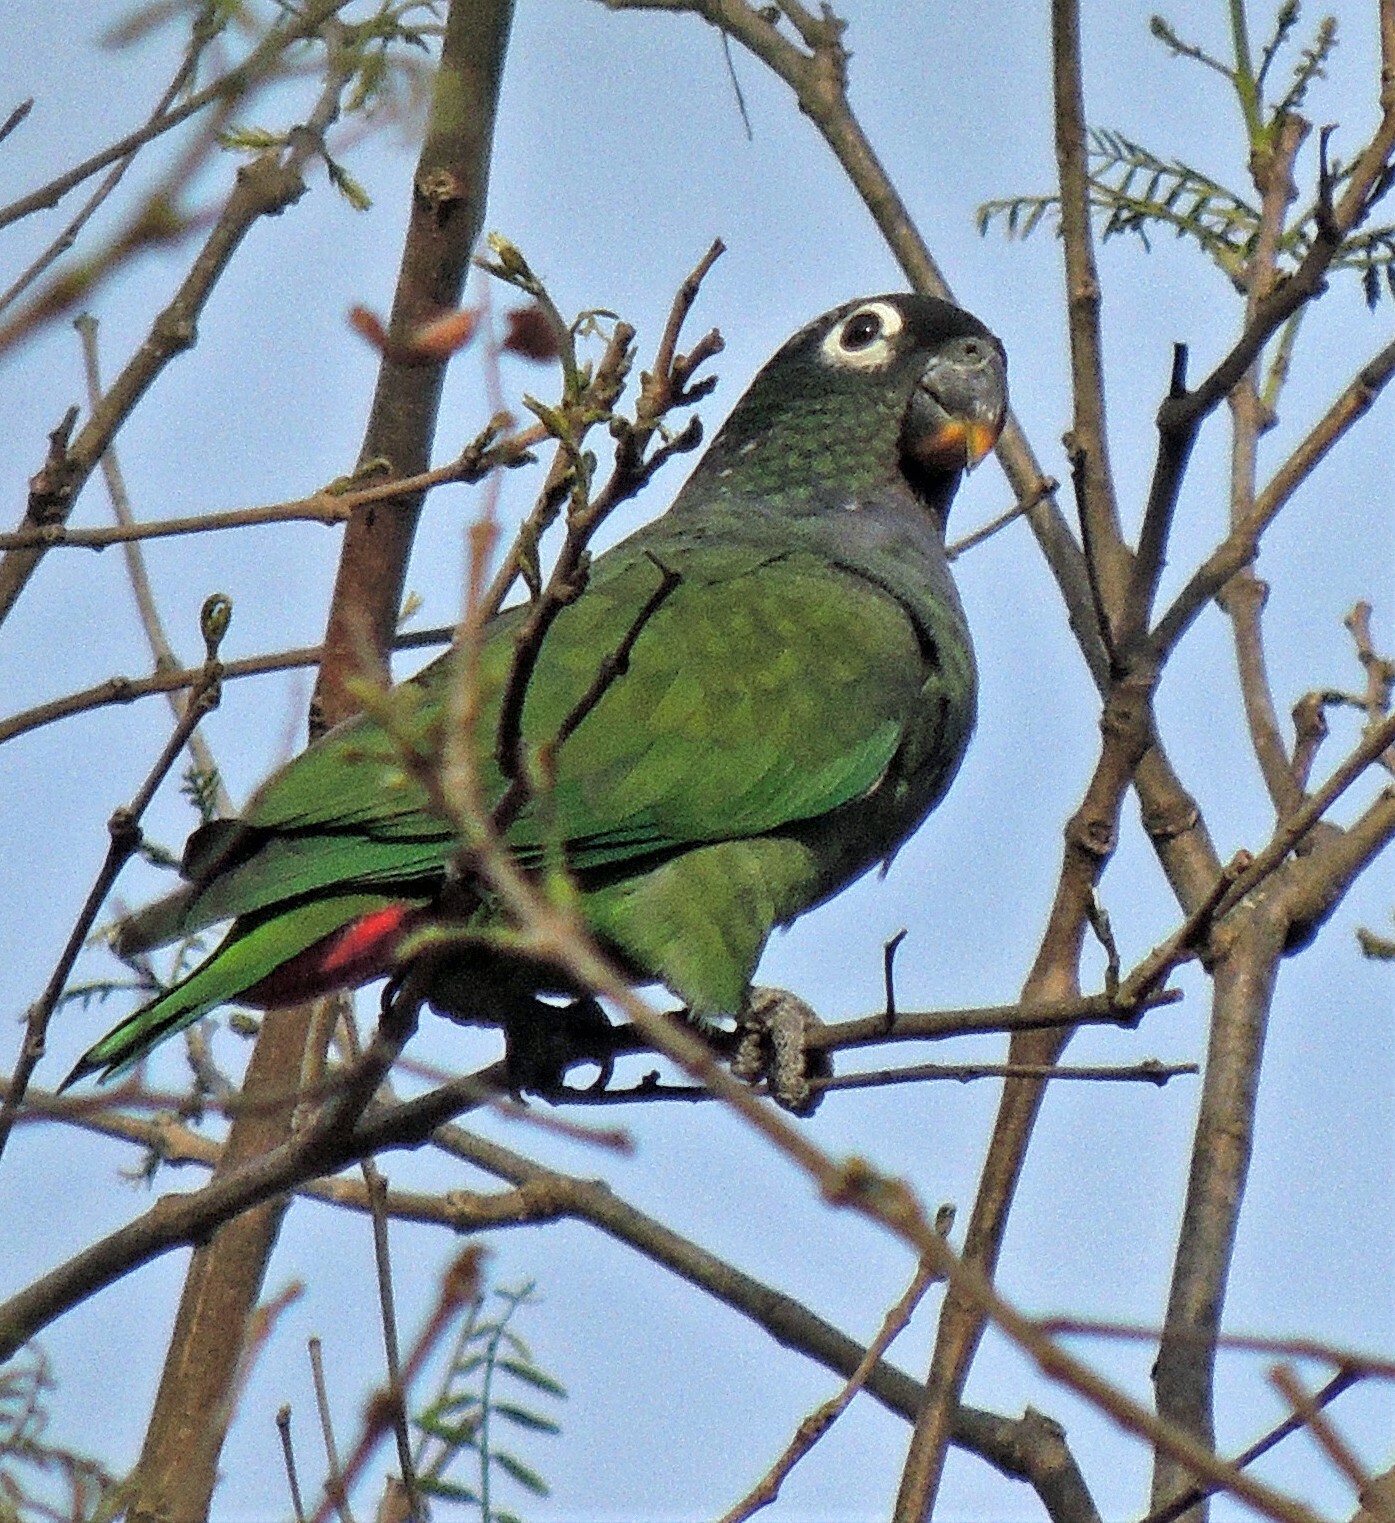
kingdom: Animalia
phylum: Chordata
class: Aves
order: Psittaciformes
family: Psittacidae
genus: Pionus
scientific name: Pionus maximiliani
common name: Scaly-headed parrot
